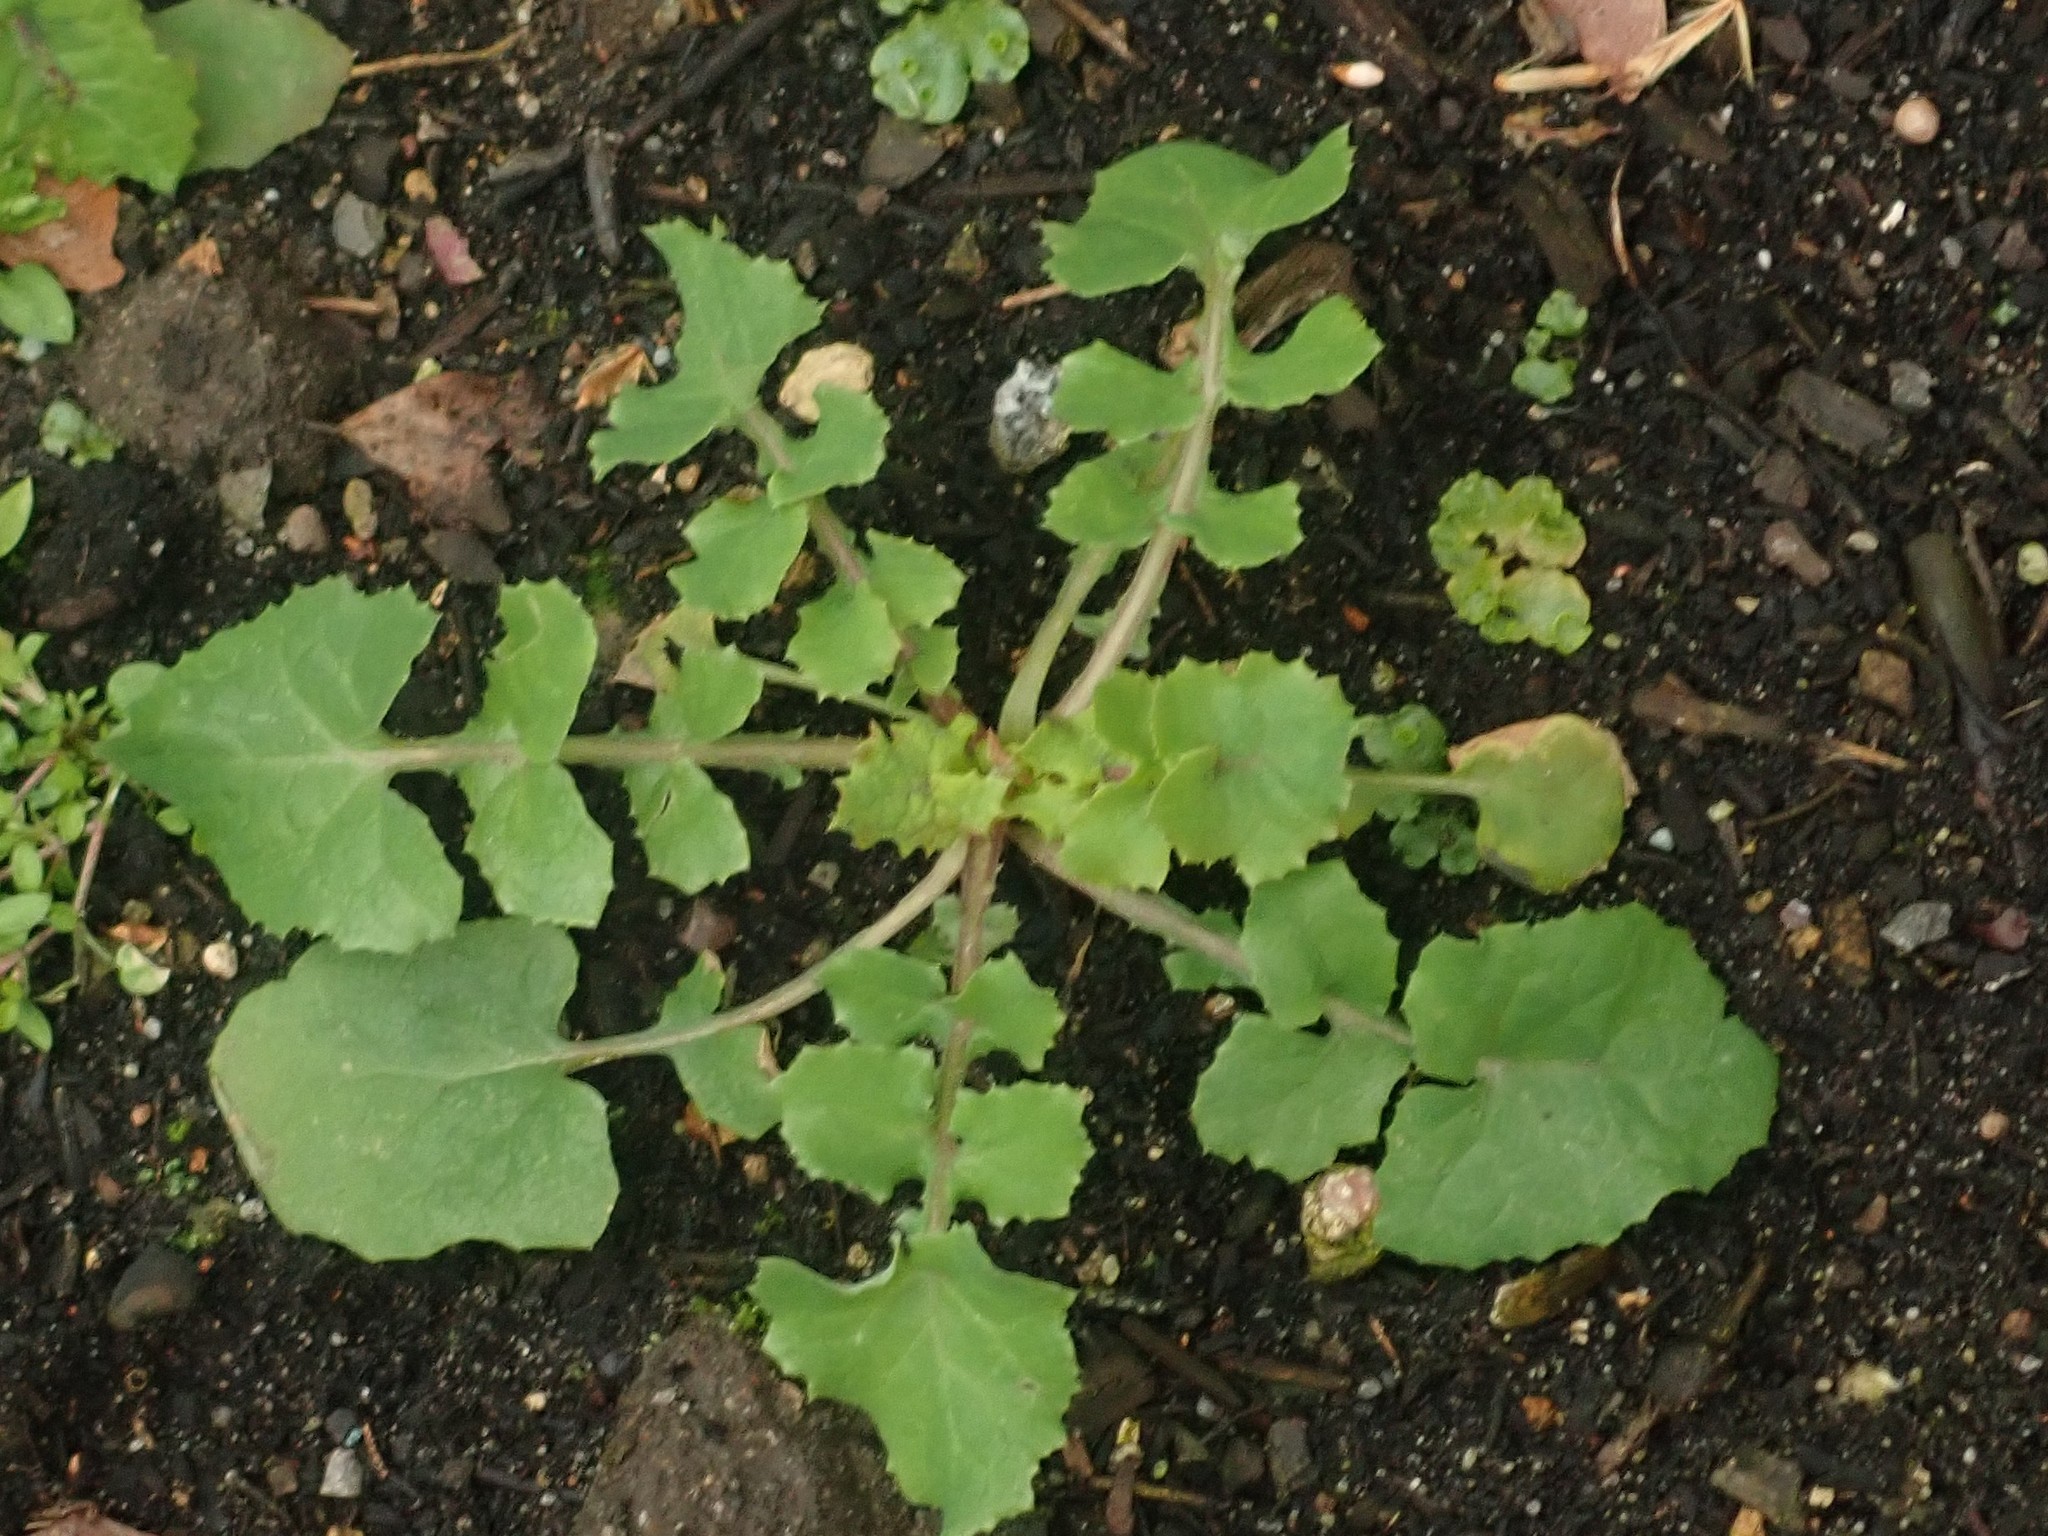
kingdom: Plantae
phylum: Tracheophyta
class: Magnoliopsida
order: Asterales
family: Asteraceae
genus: Sonchus
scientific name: Sonchus oleraceus
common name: Common sowthistle
